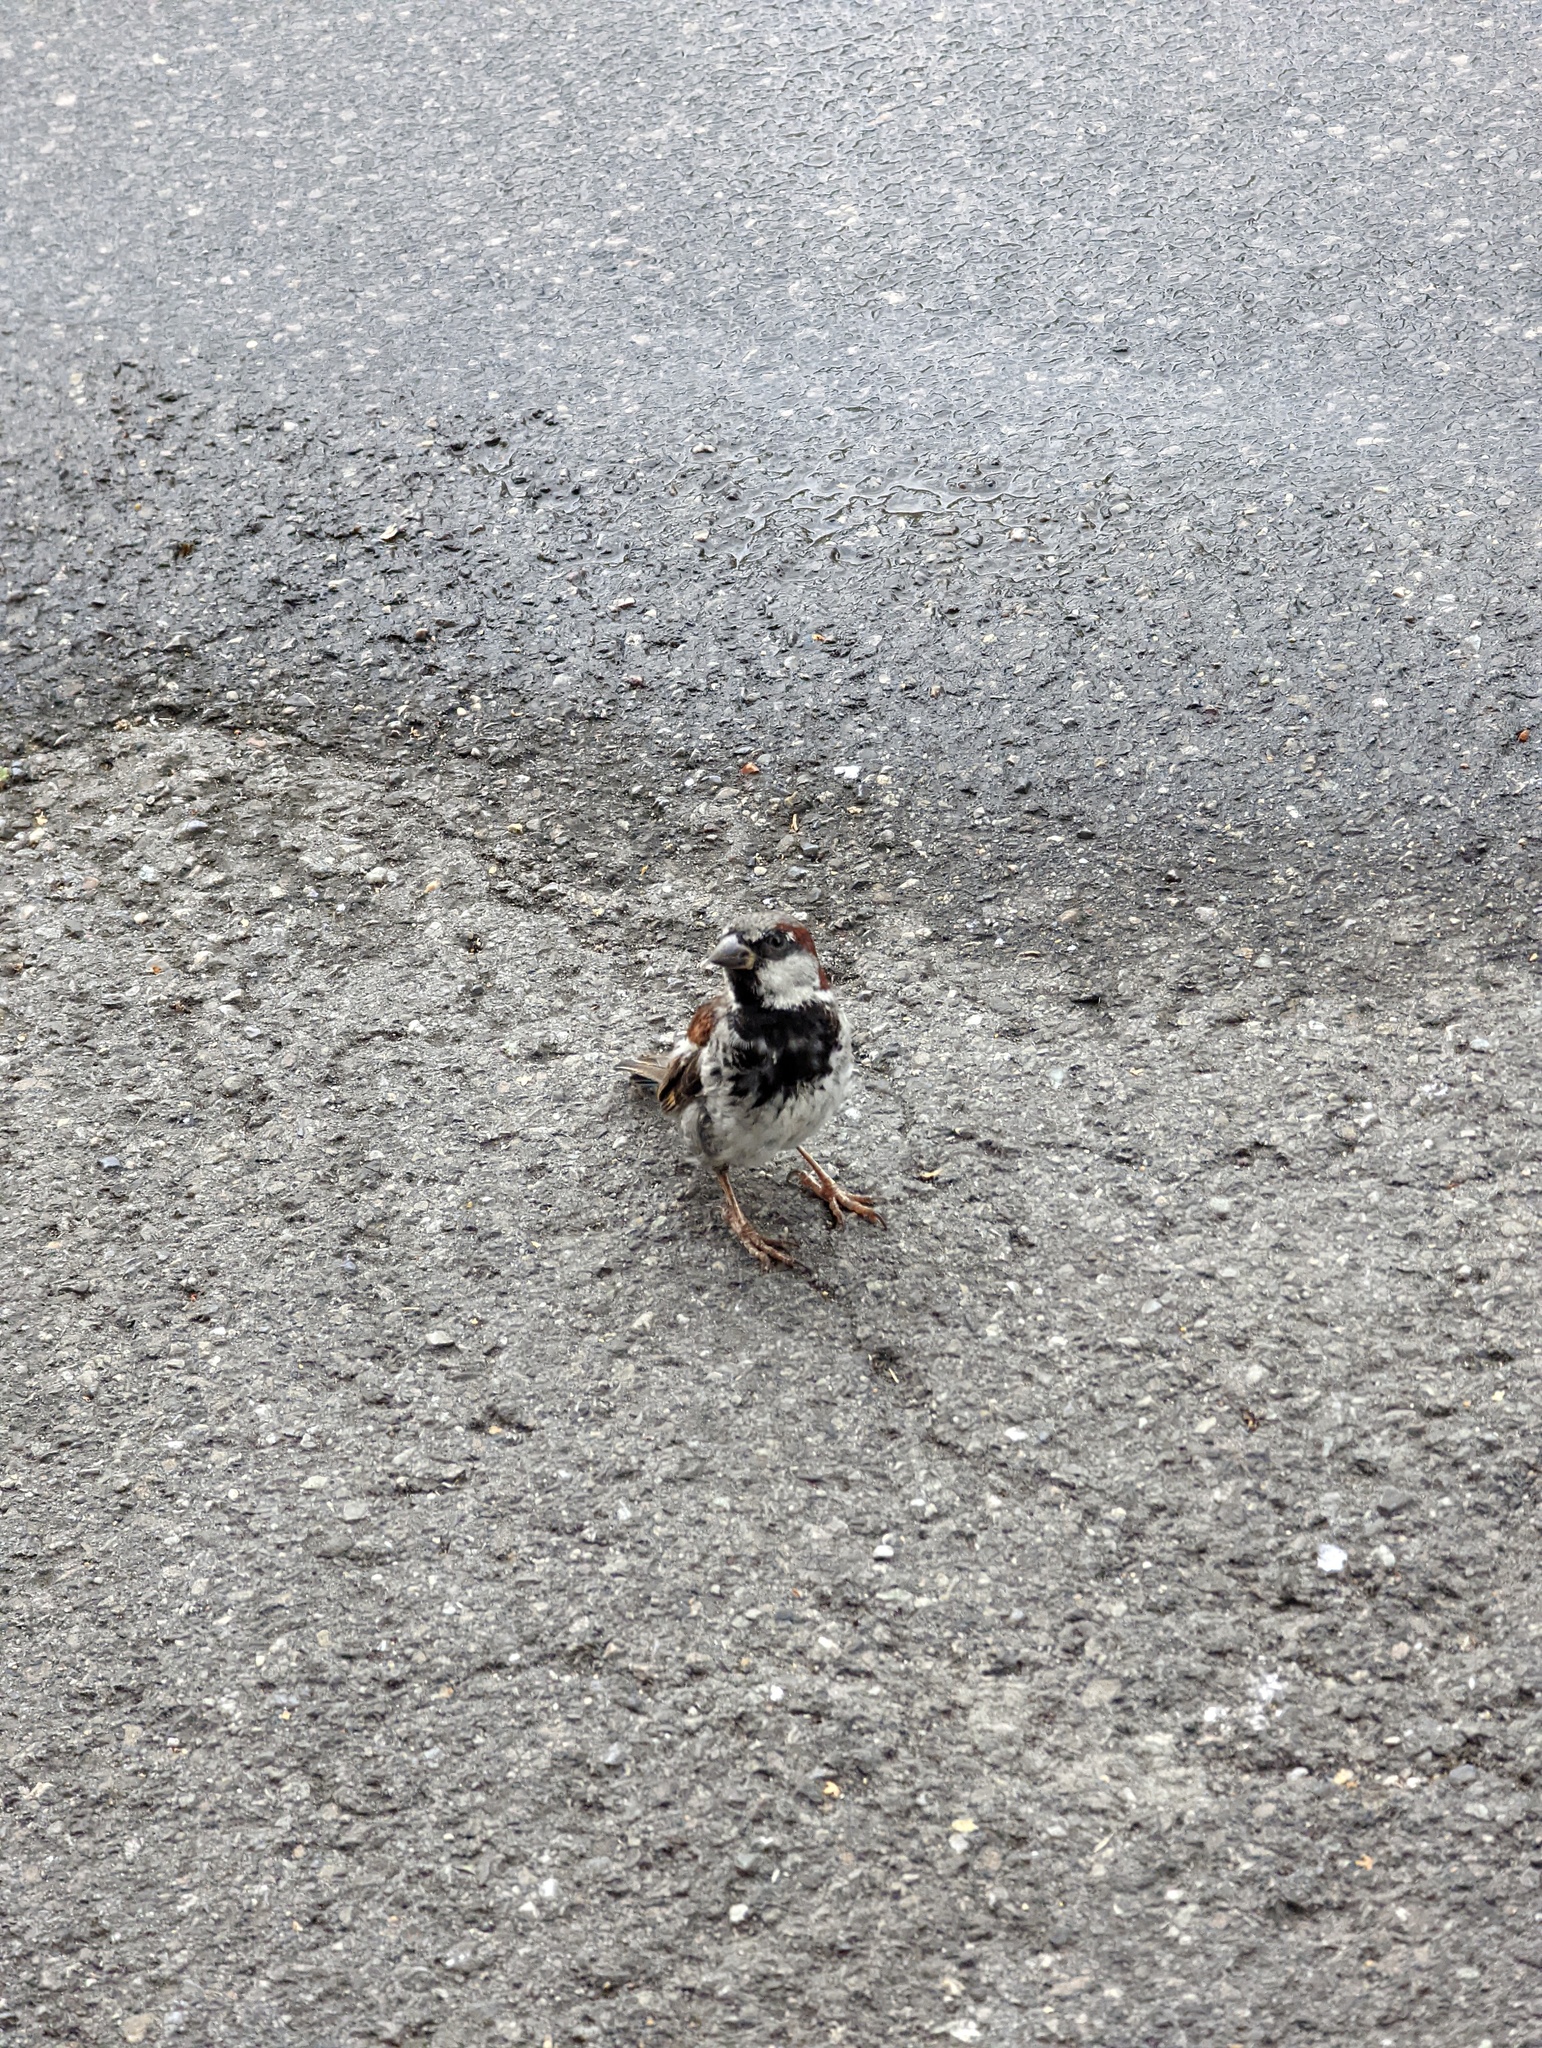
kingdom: Animalia
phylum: Chordata
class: Aves
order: Passeriformes
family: Passeridae
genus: Passer
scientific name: Passer domesticus
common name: House sparrow
